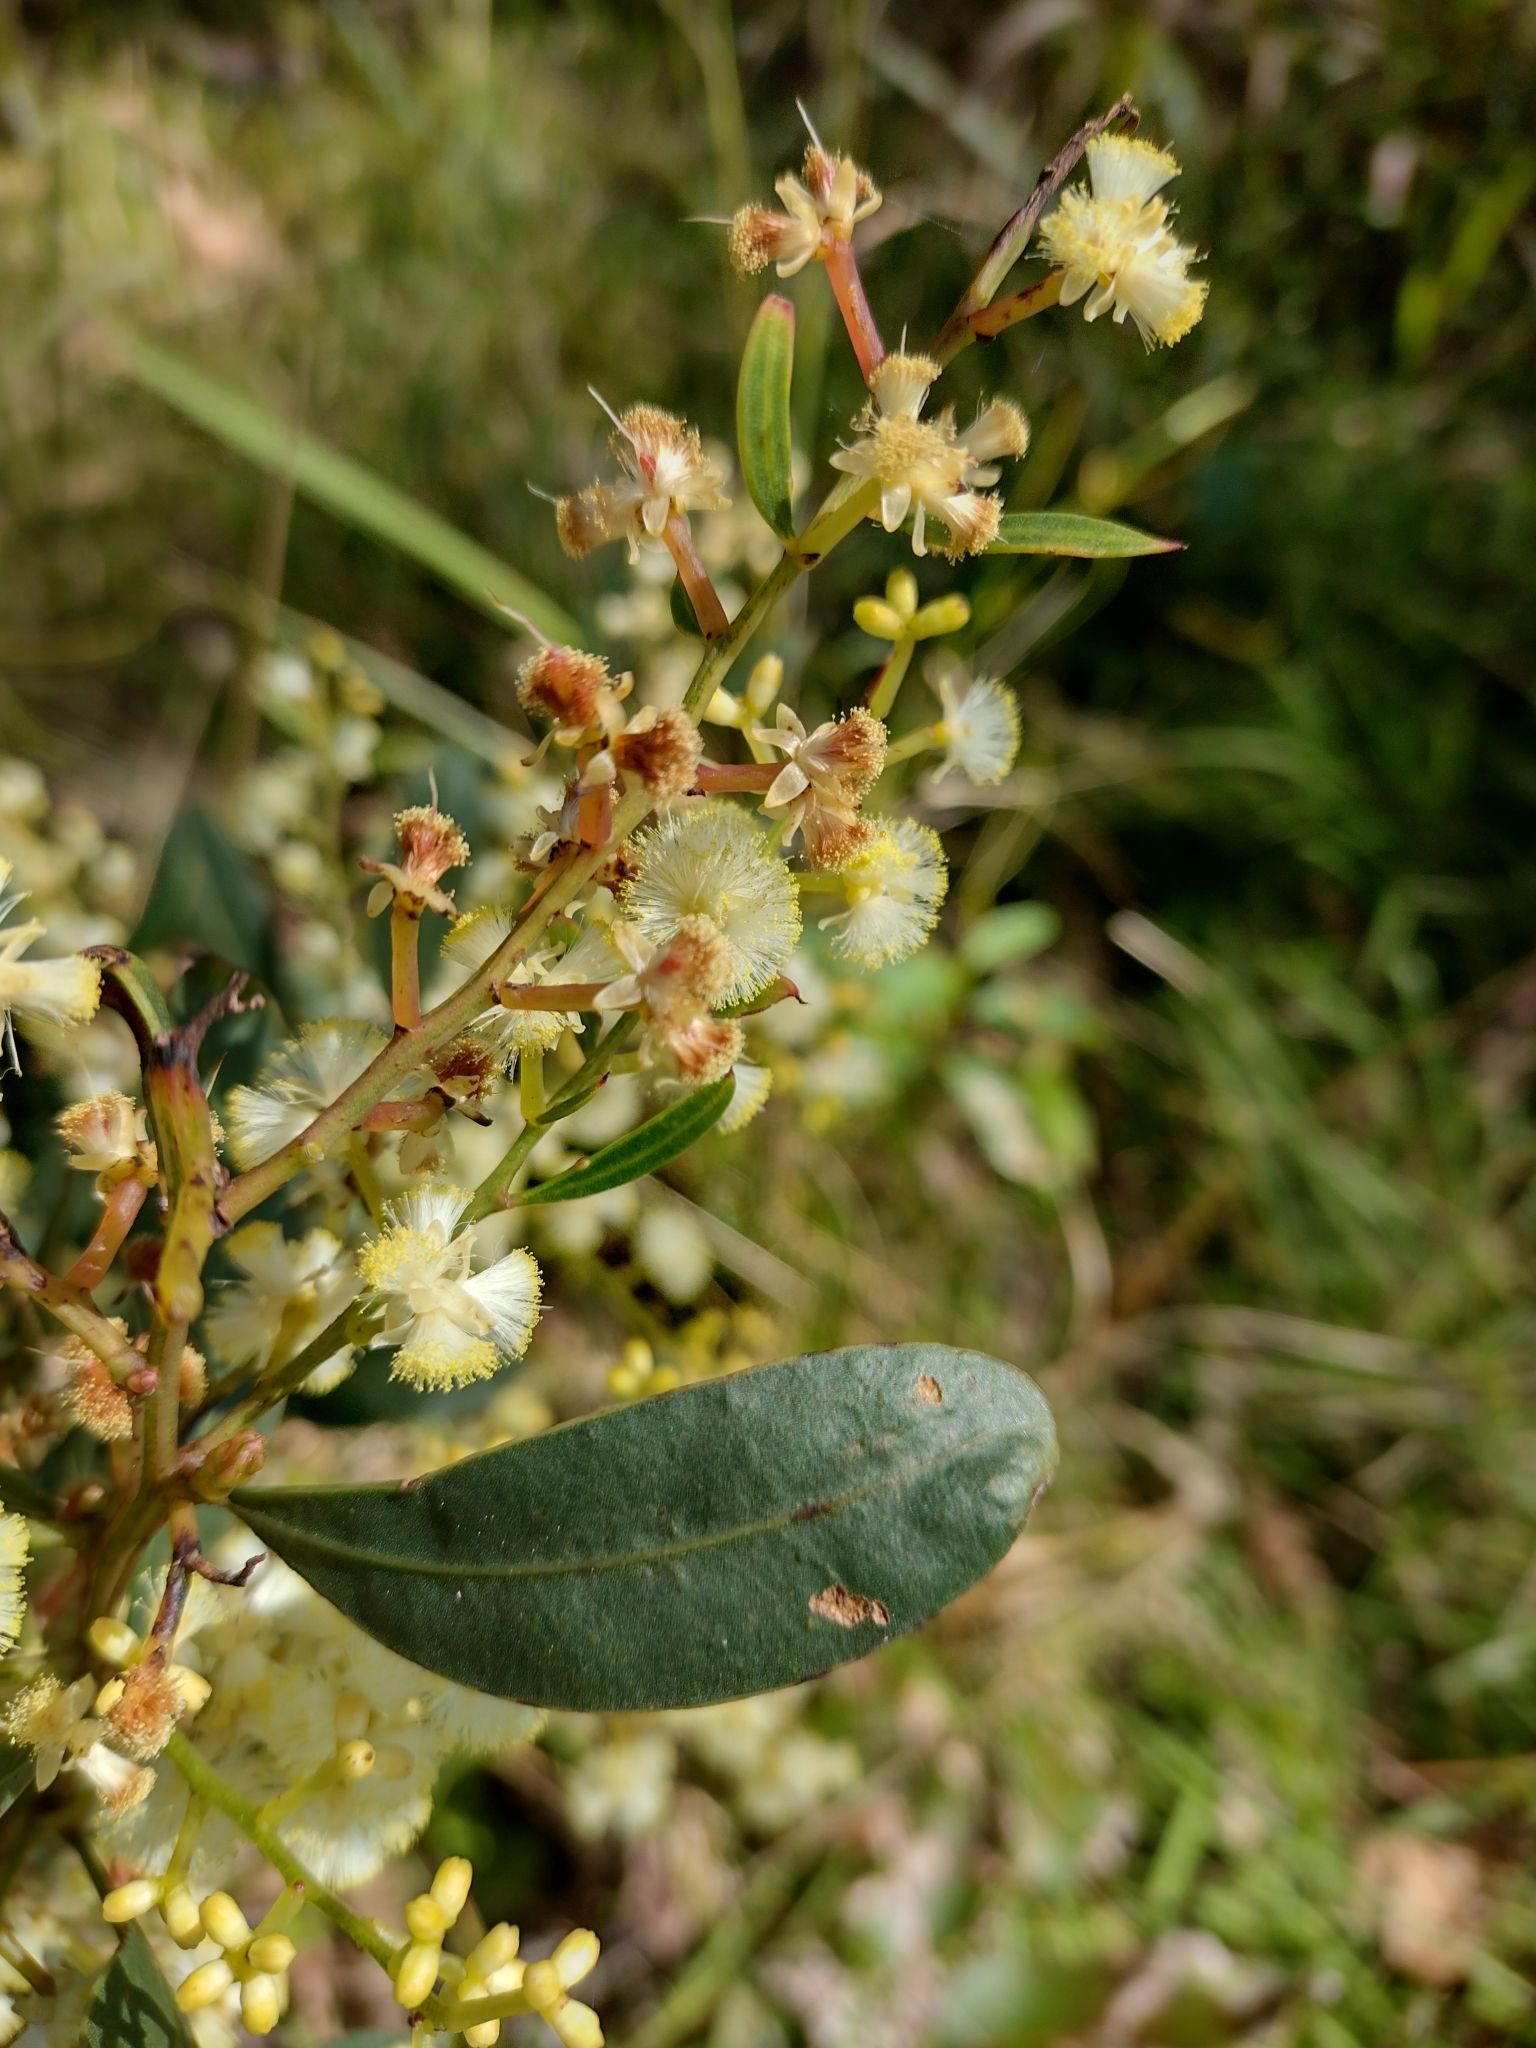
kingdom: Plantae
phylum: Tracheophyta
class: Magnoliopsida
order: Fabales
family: Fabaceae
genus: Acacia
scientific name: Acacia myrtifolia
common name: Myrtle wattle
